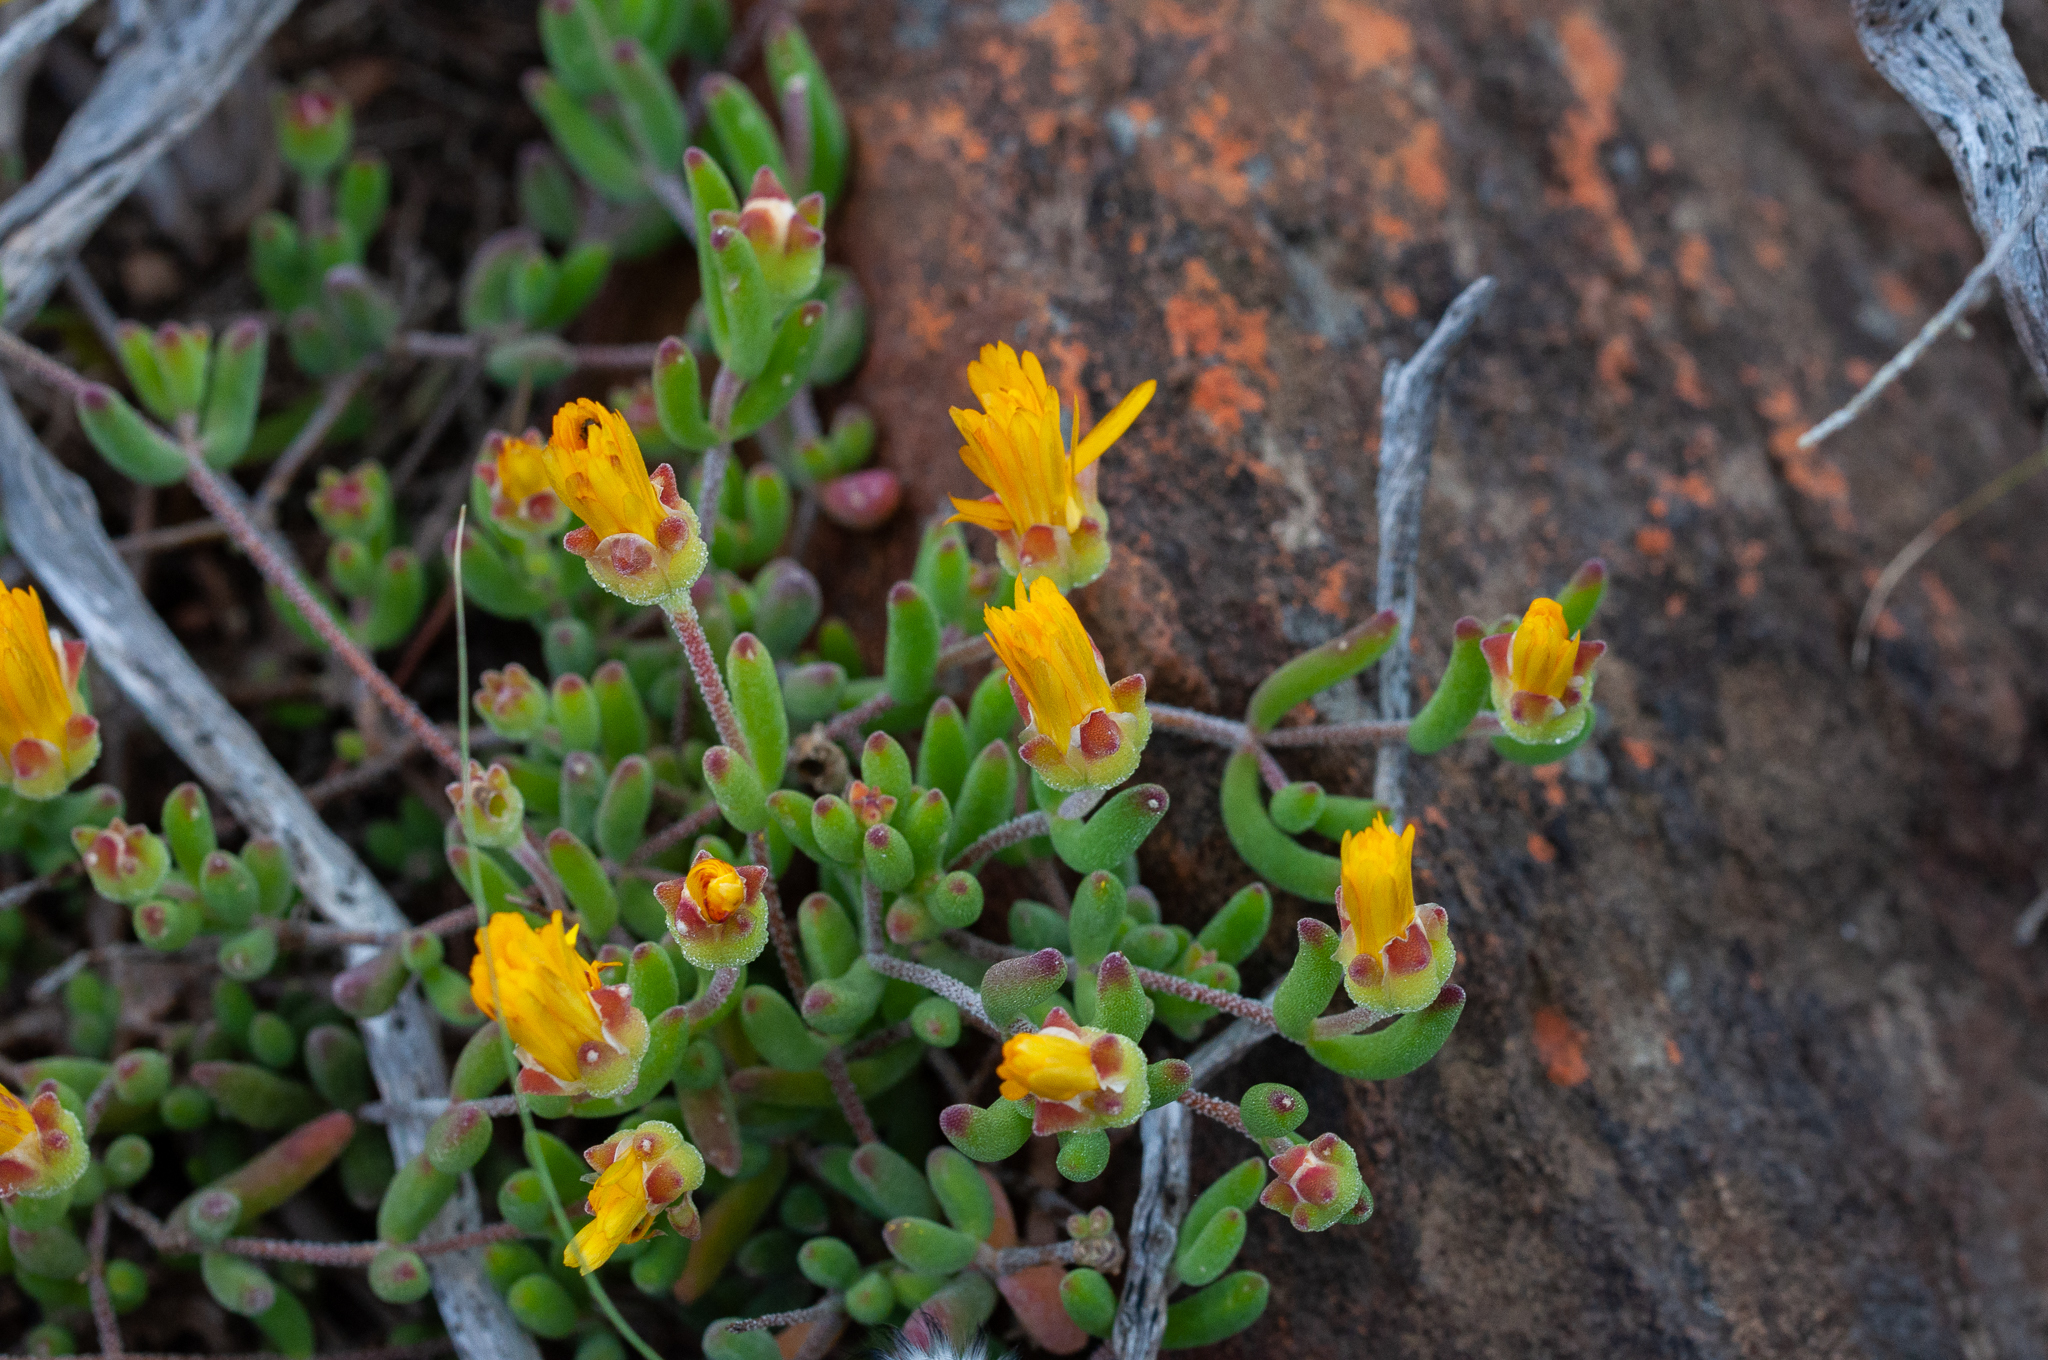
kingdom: Plantae
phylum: Tracheophyta
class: Magnoliopsida
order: Caryophyllales
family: Aizoaceae
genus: Drosanthemum
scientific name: Drosanthemum flavum
